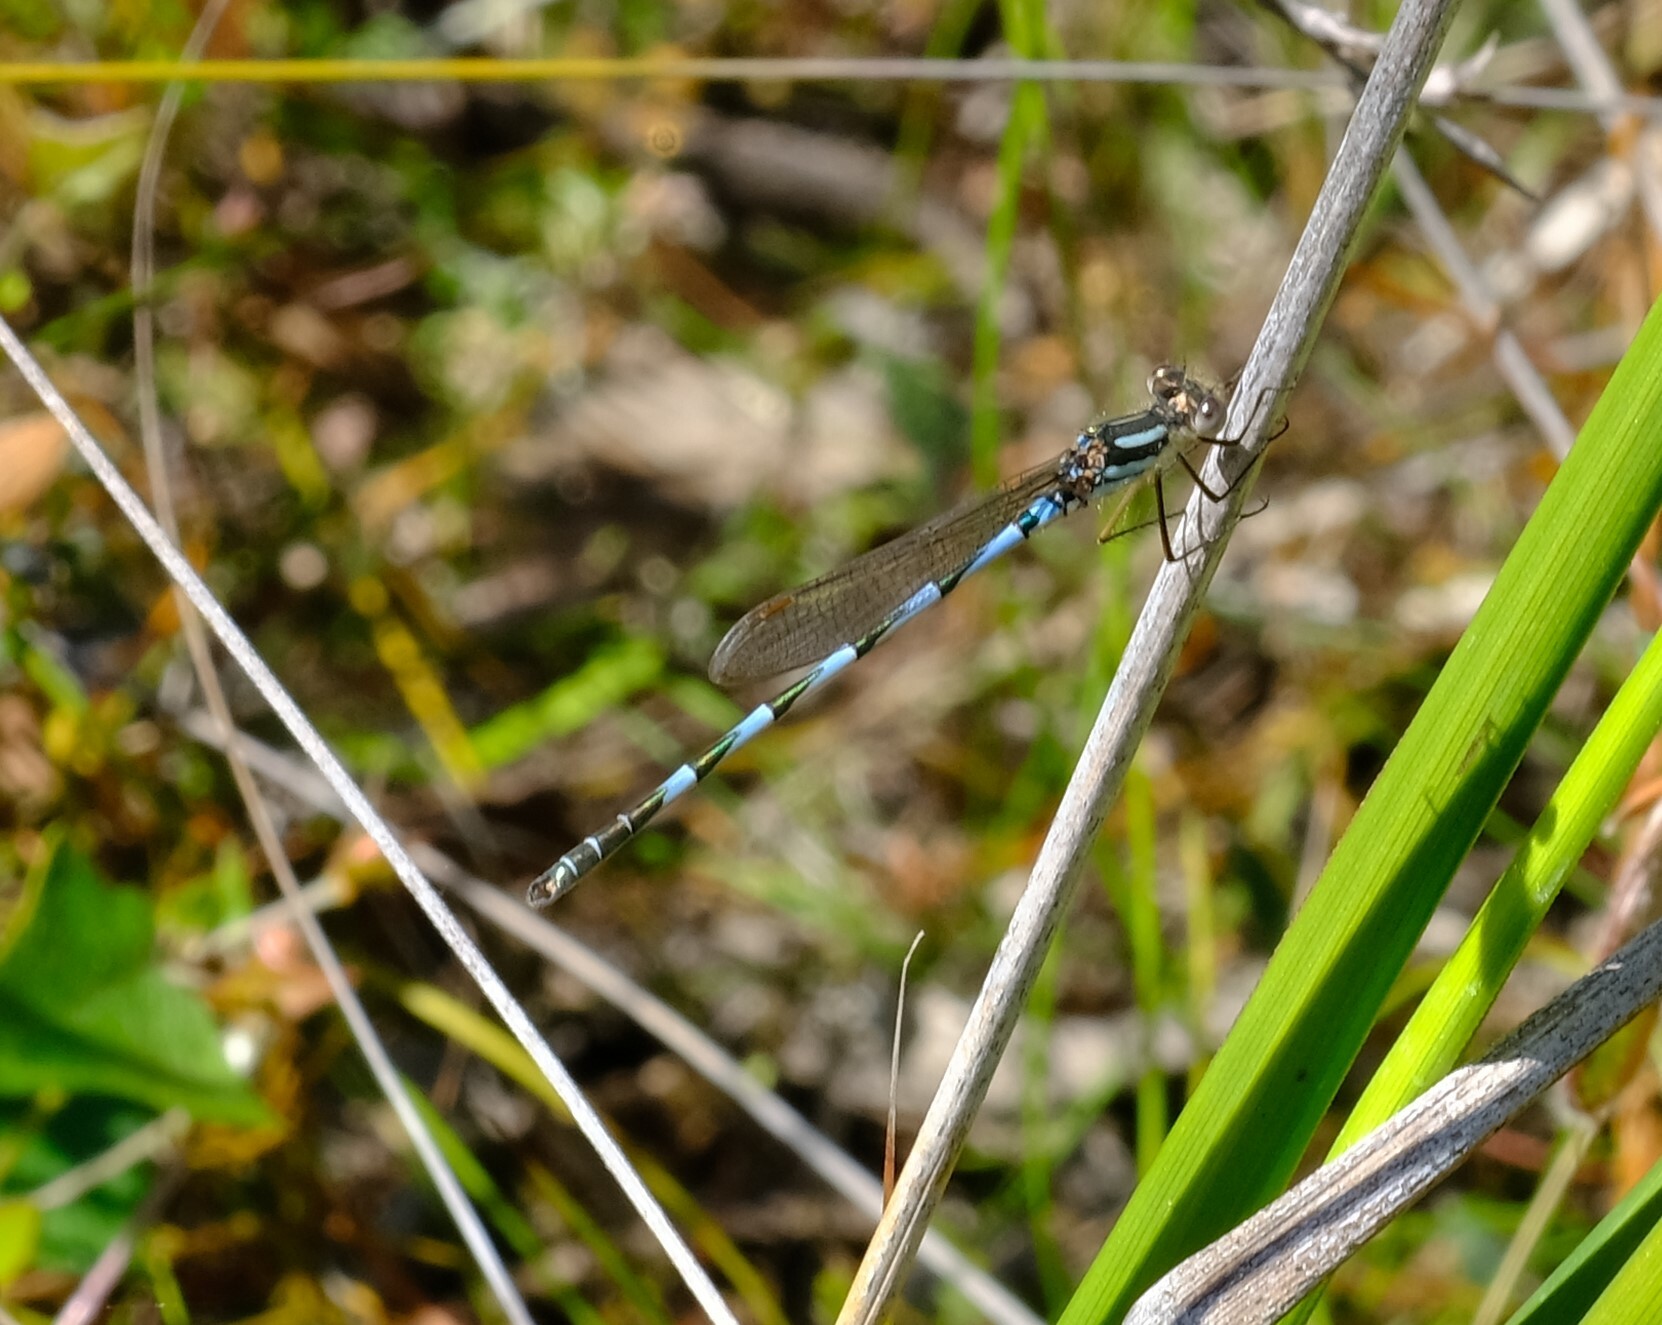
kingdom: Animalia
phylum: Arthropoda
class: Insecta
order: Odonata
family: Lestidae
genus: Austrolestes
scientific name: Austrolestes annulosus
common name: Blue ringtail
